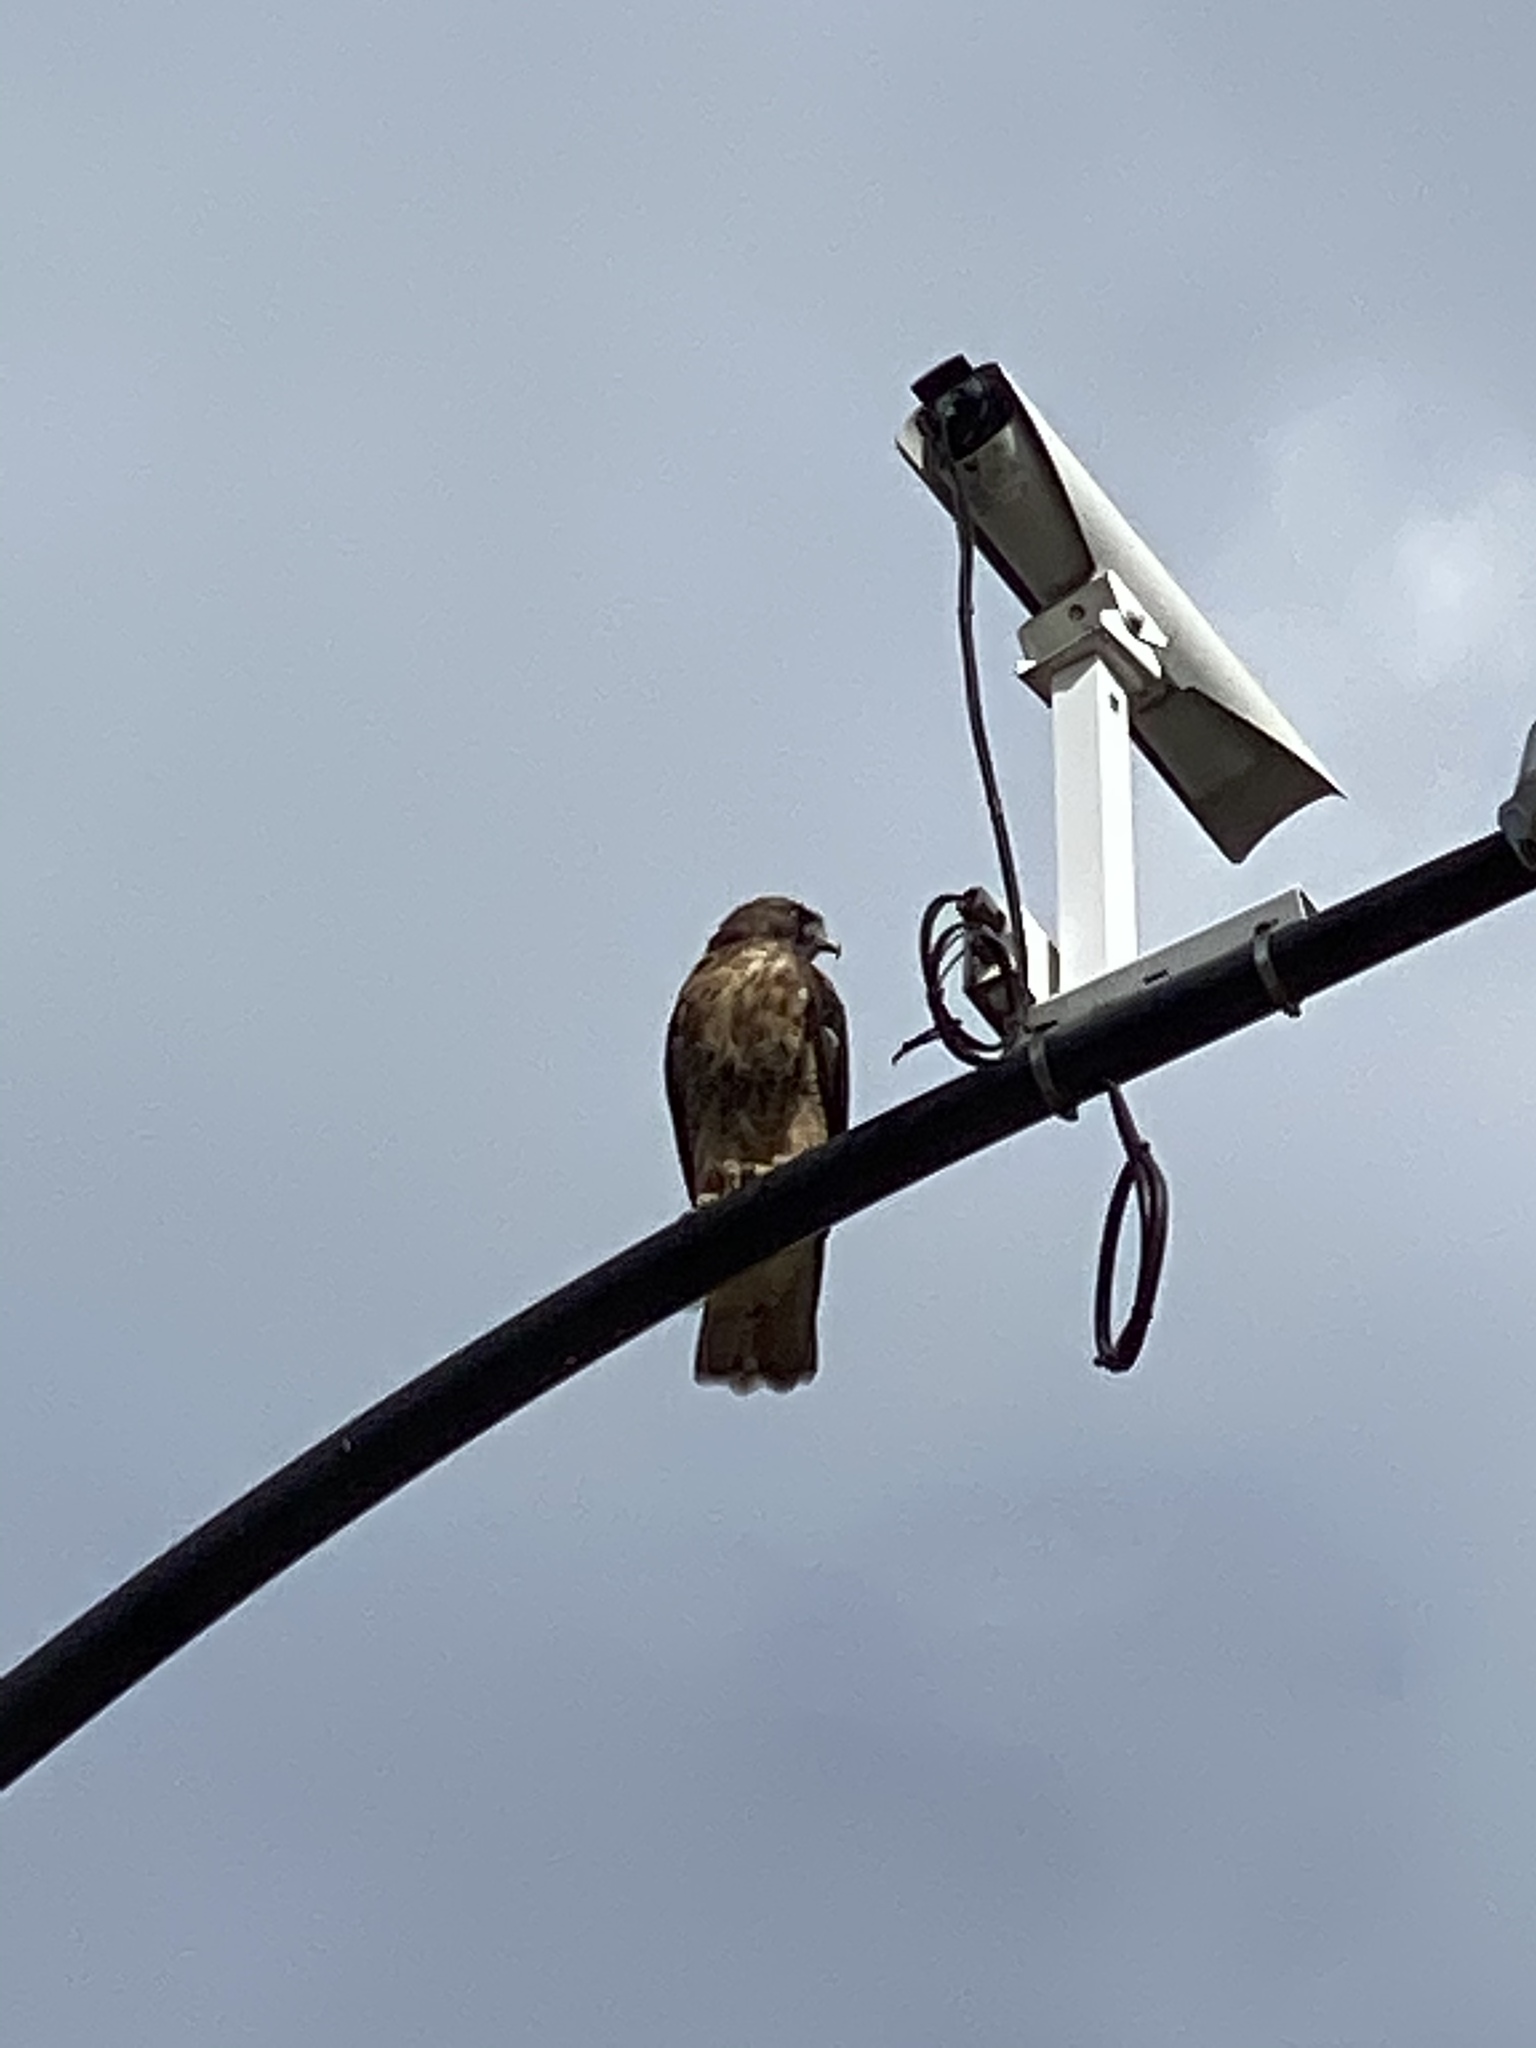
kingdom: Animalia
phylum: Chordata
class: Aves
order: Accipitriformes
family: Accipitridae
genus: Buteo
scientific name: Buteo jamaicensis
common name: Red-tailed hawk
